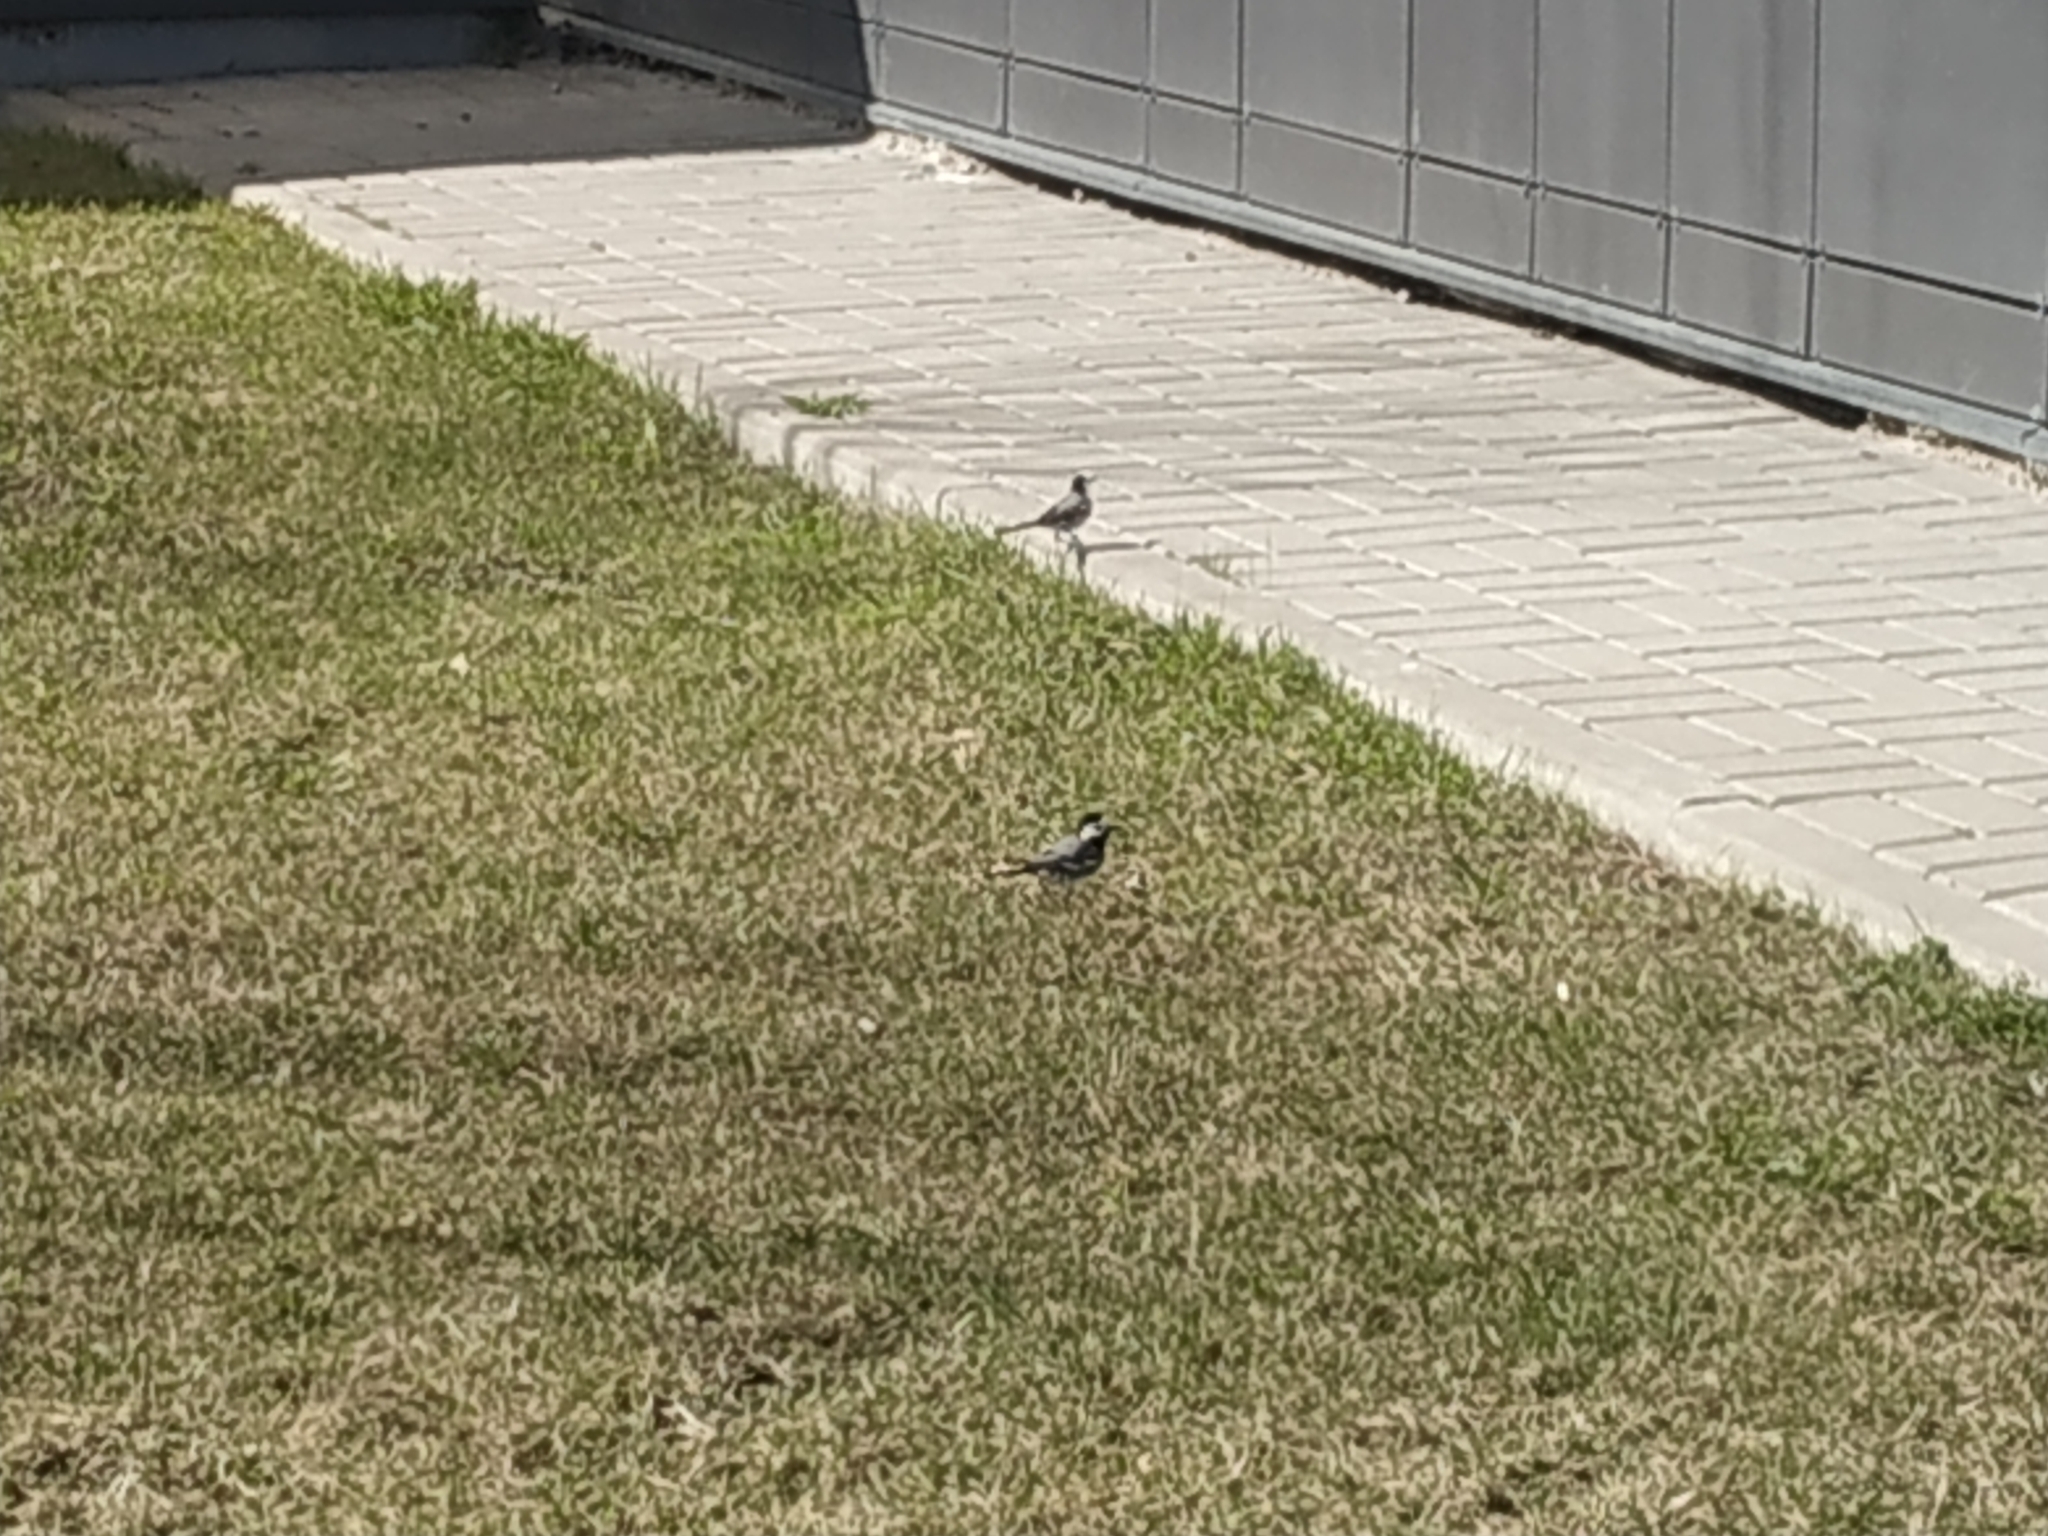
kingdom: Animalia
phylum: Chordata
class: Aves
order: Passeriformes
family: Motacillidae
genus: Motacilla
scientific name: Motacilla alba
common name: White wagtail
